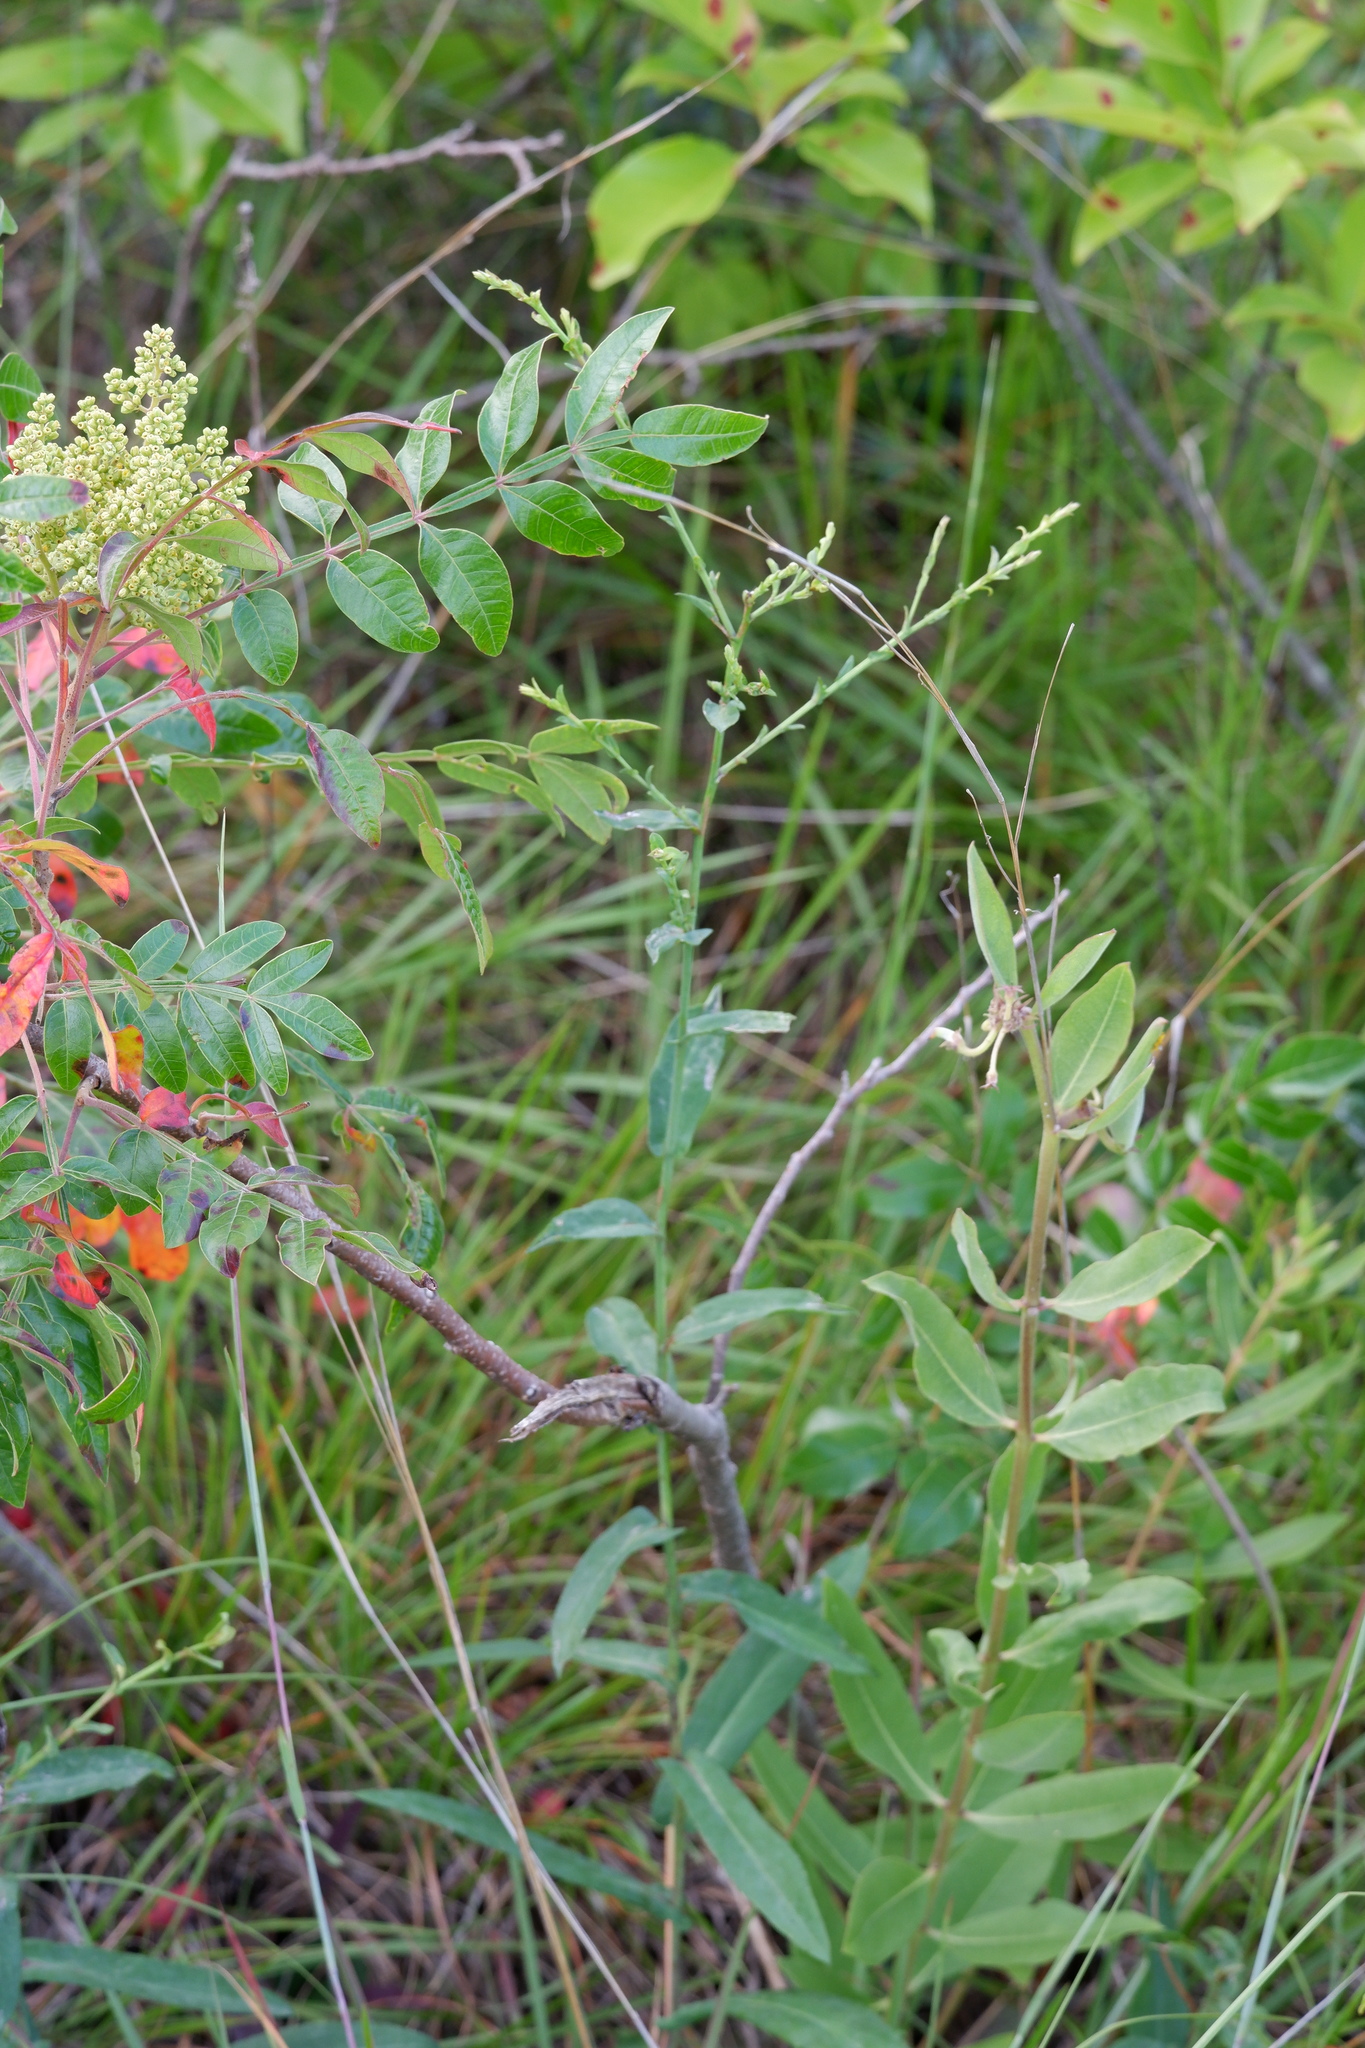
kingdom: Plantae
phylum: Tracheophyta
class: Magnoliopsida
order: Asterales
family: Asteraceae
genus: Symphyotrichum
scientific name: Symphyotrichum laeve
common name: Glaucous aster
